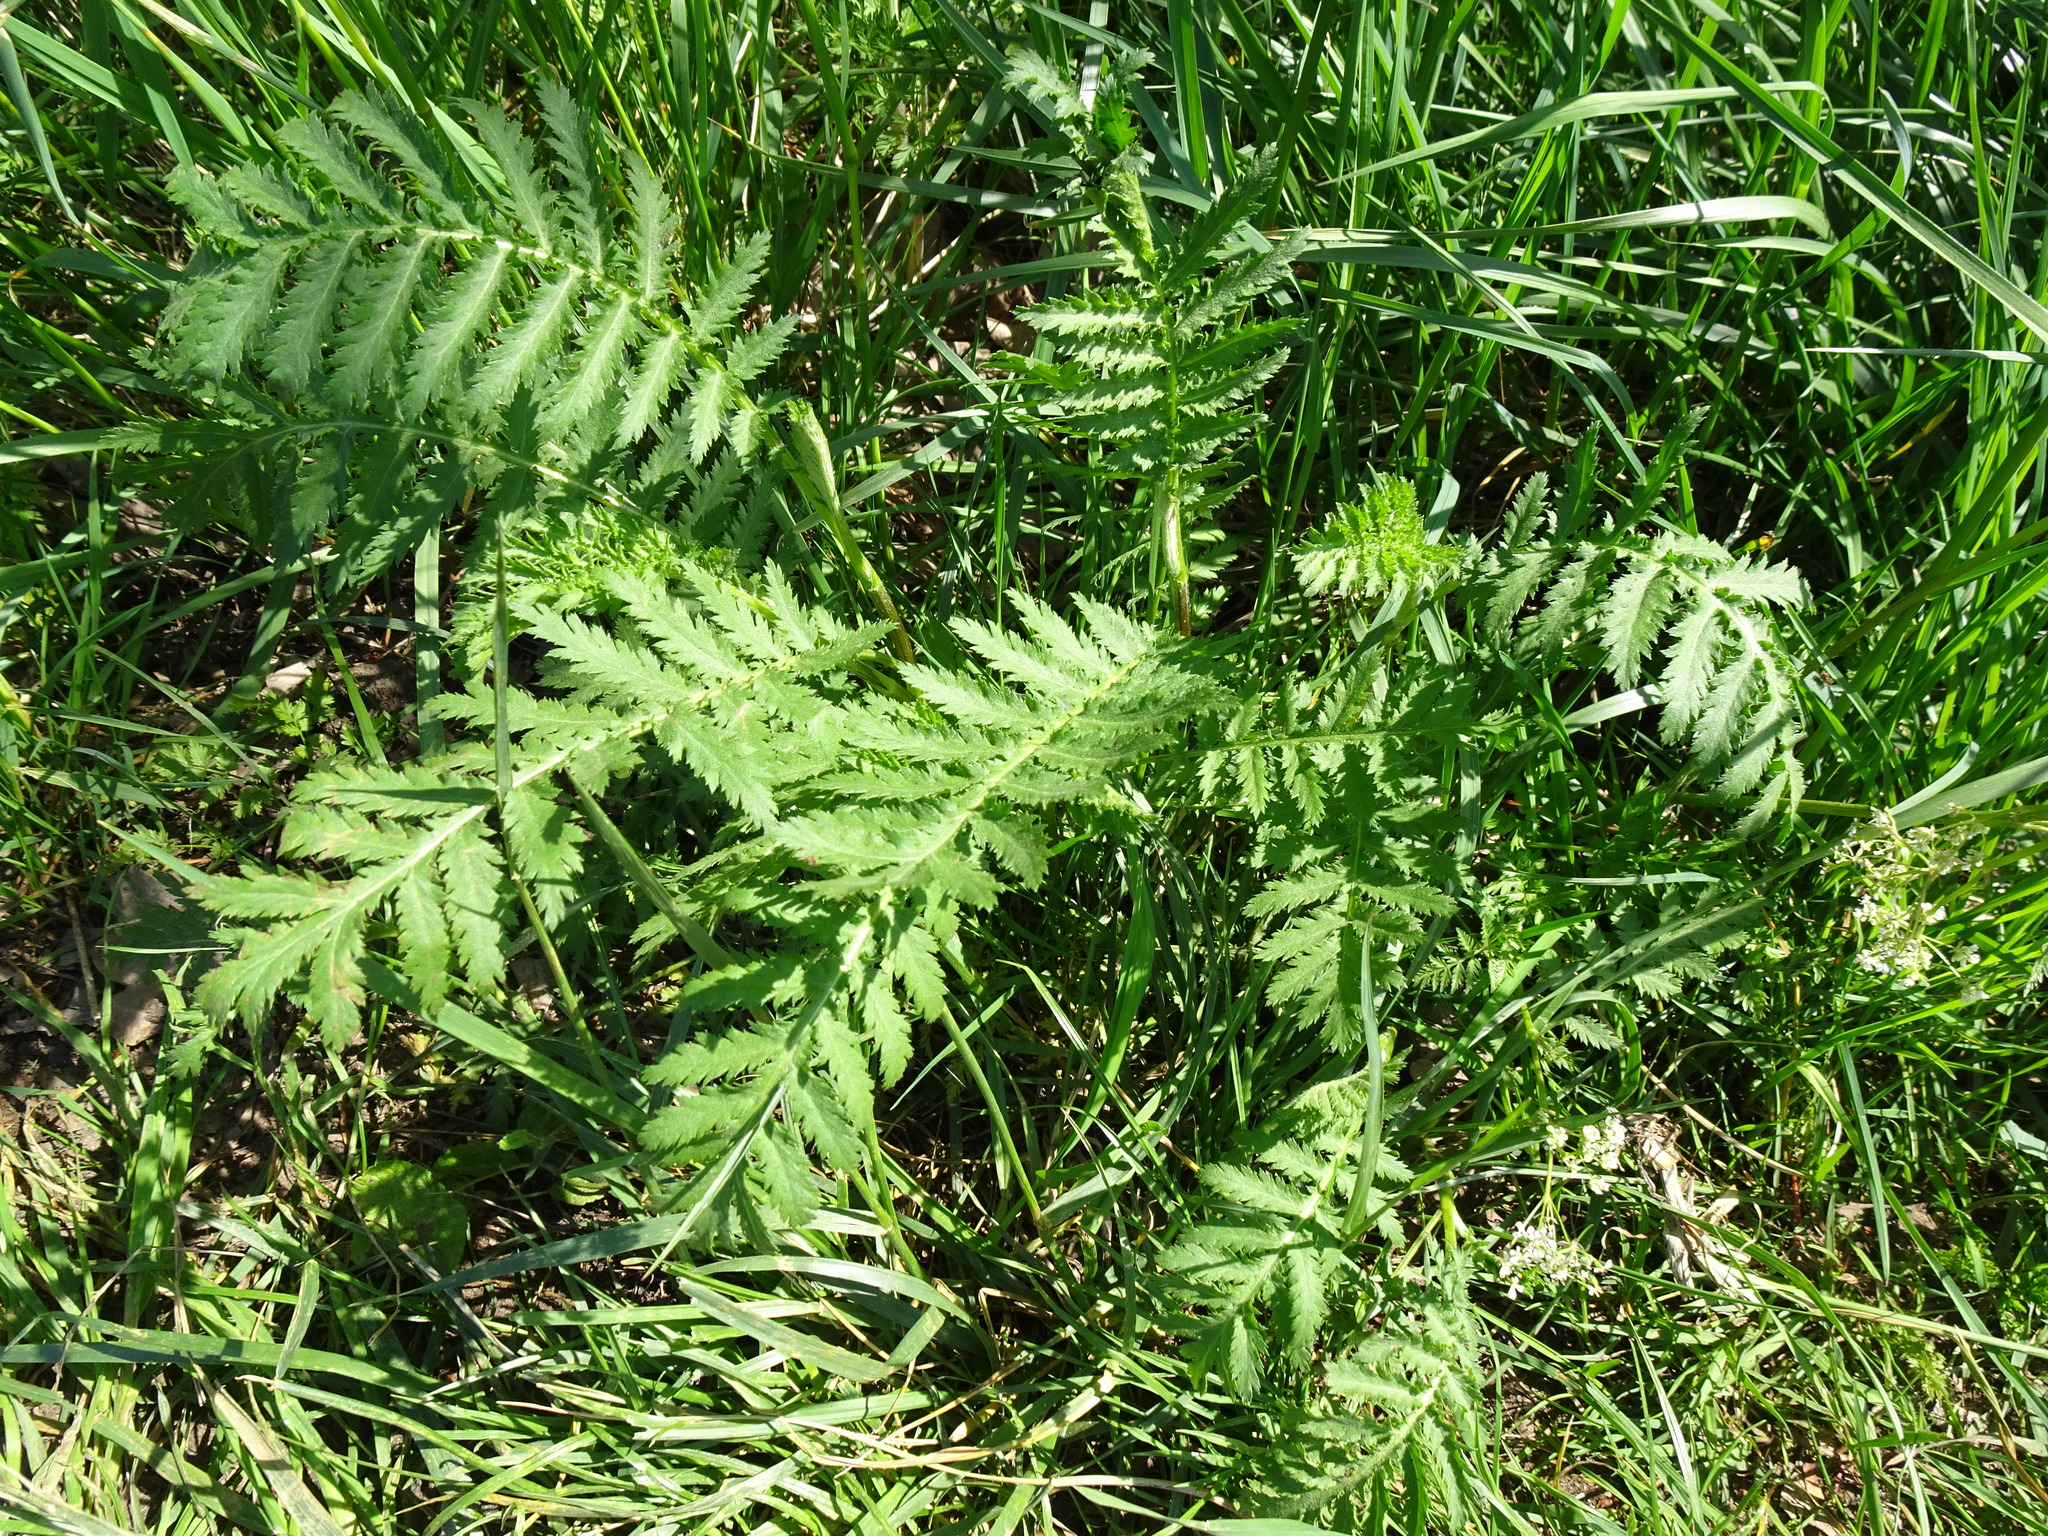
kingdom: Plantae
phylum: Tracheophyta
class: Magnoliopsida
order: Asterales
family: Asteraceae
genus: Tanacetum
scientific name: Tanacetum vulgare
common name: Common tansy
